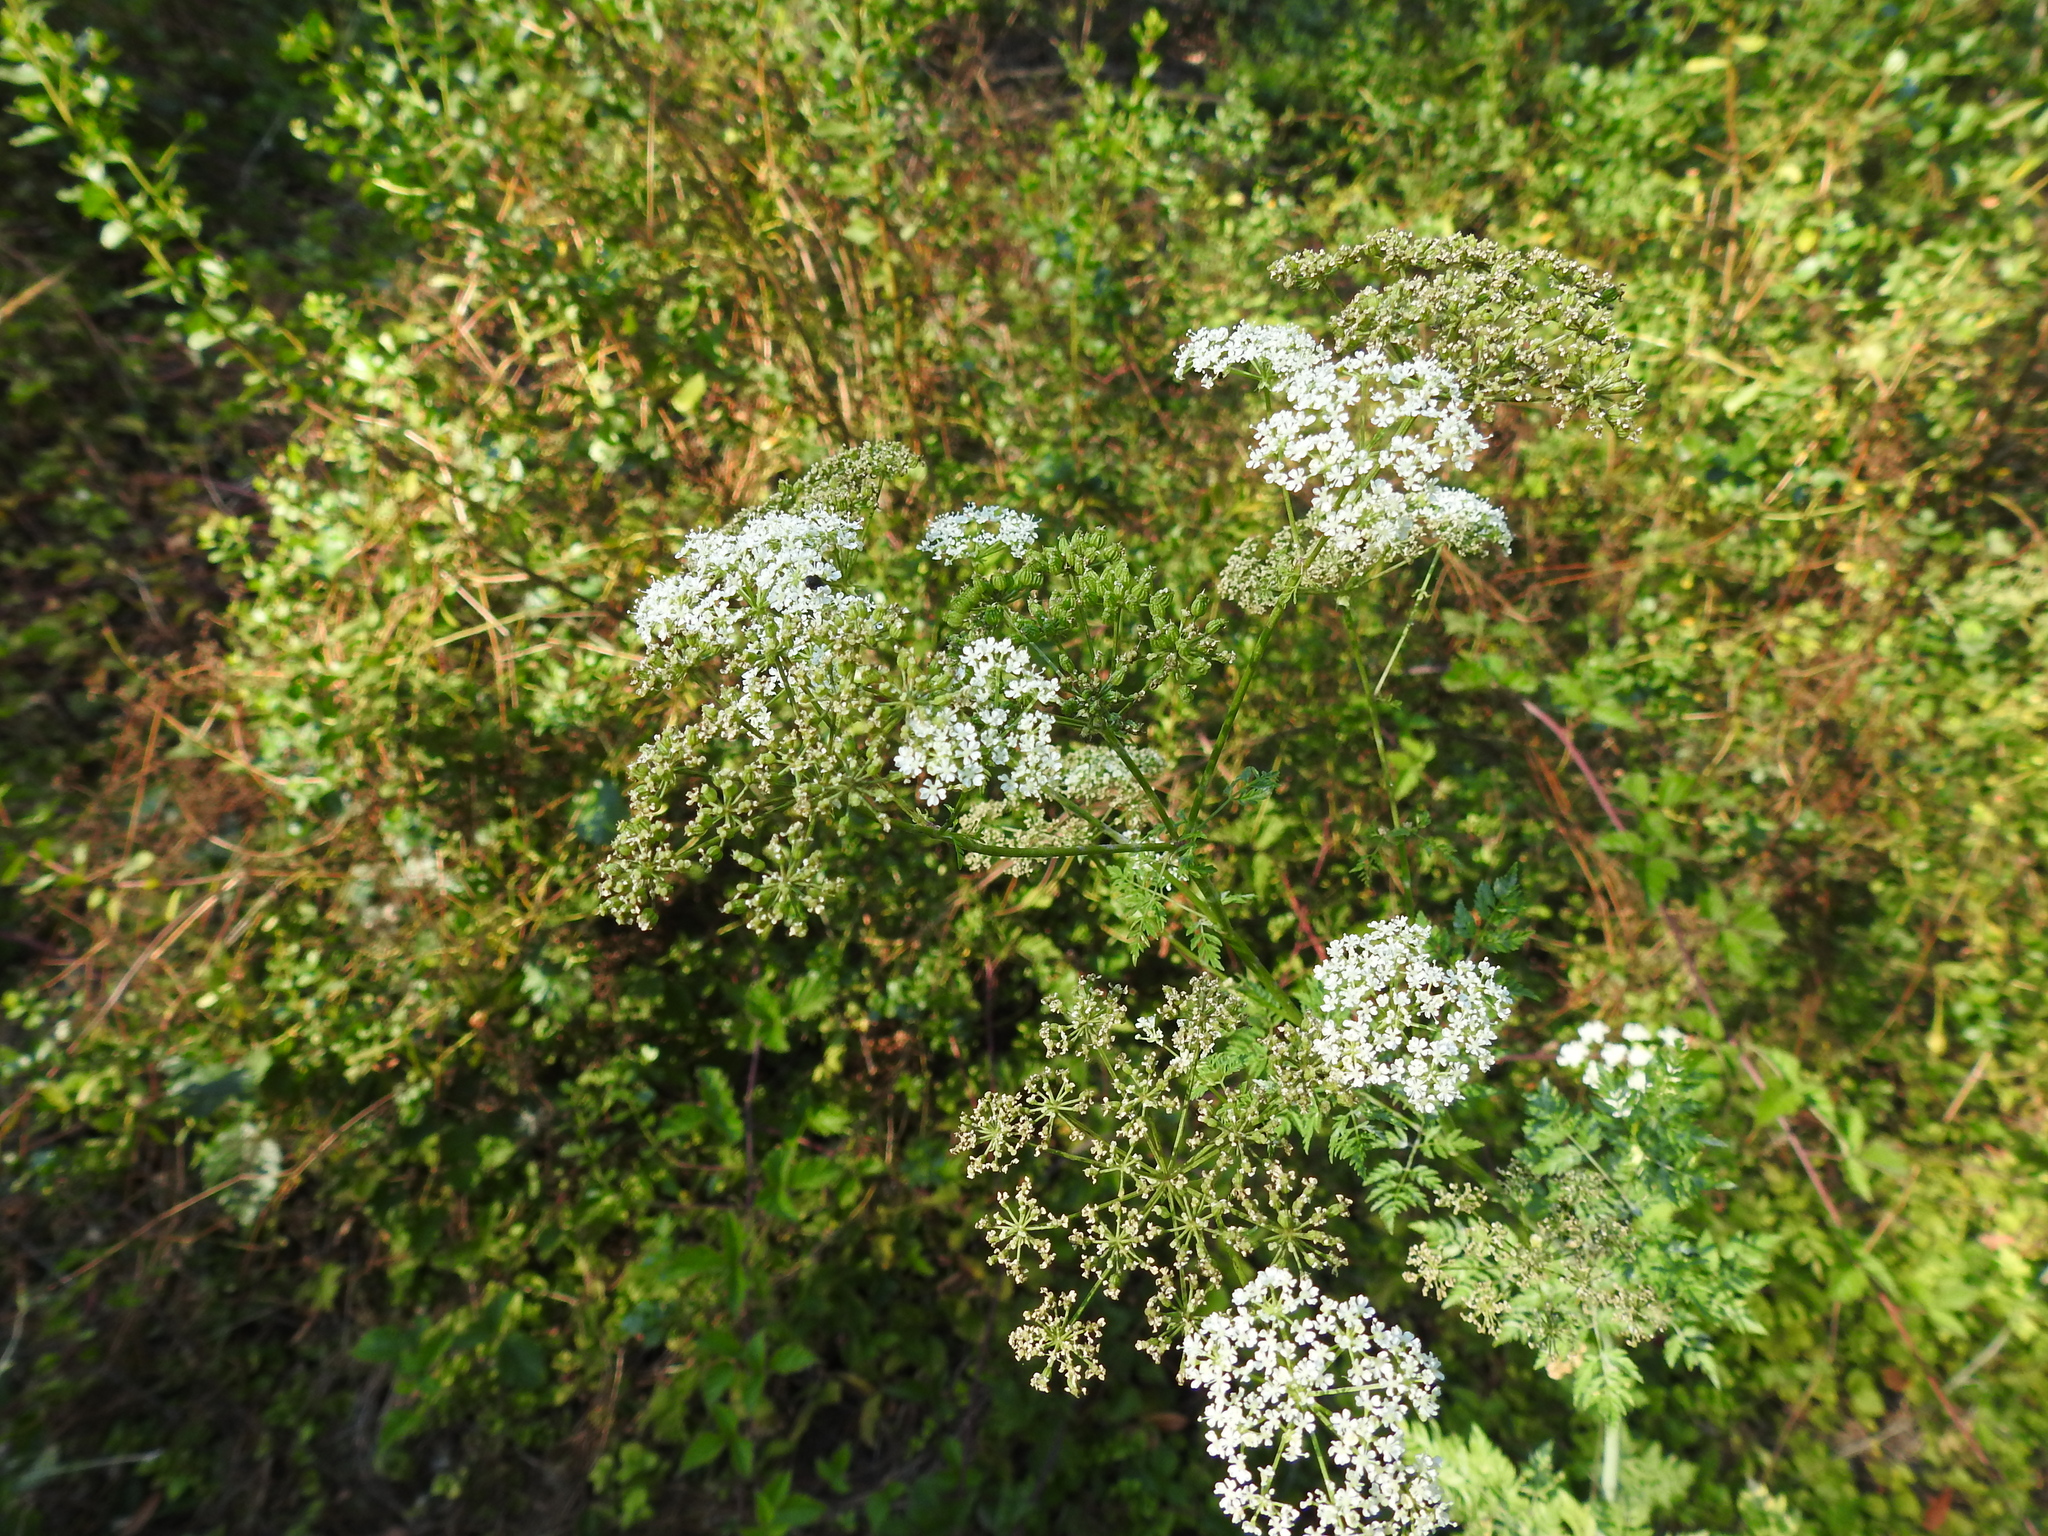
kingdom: Plantae
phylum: Tracheophyta
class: Magnoliopsida
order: Apiales
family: Apiaceae
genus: Conium
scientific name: Conium maculatum
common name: Hemlock
